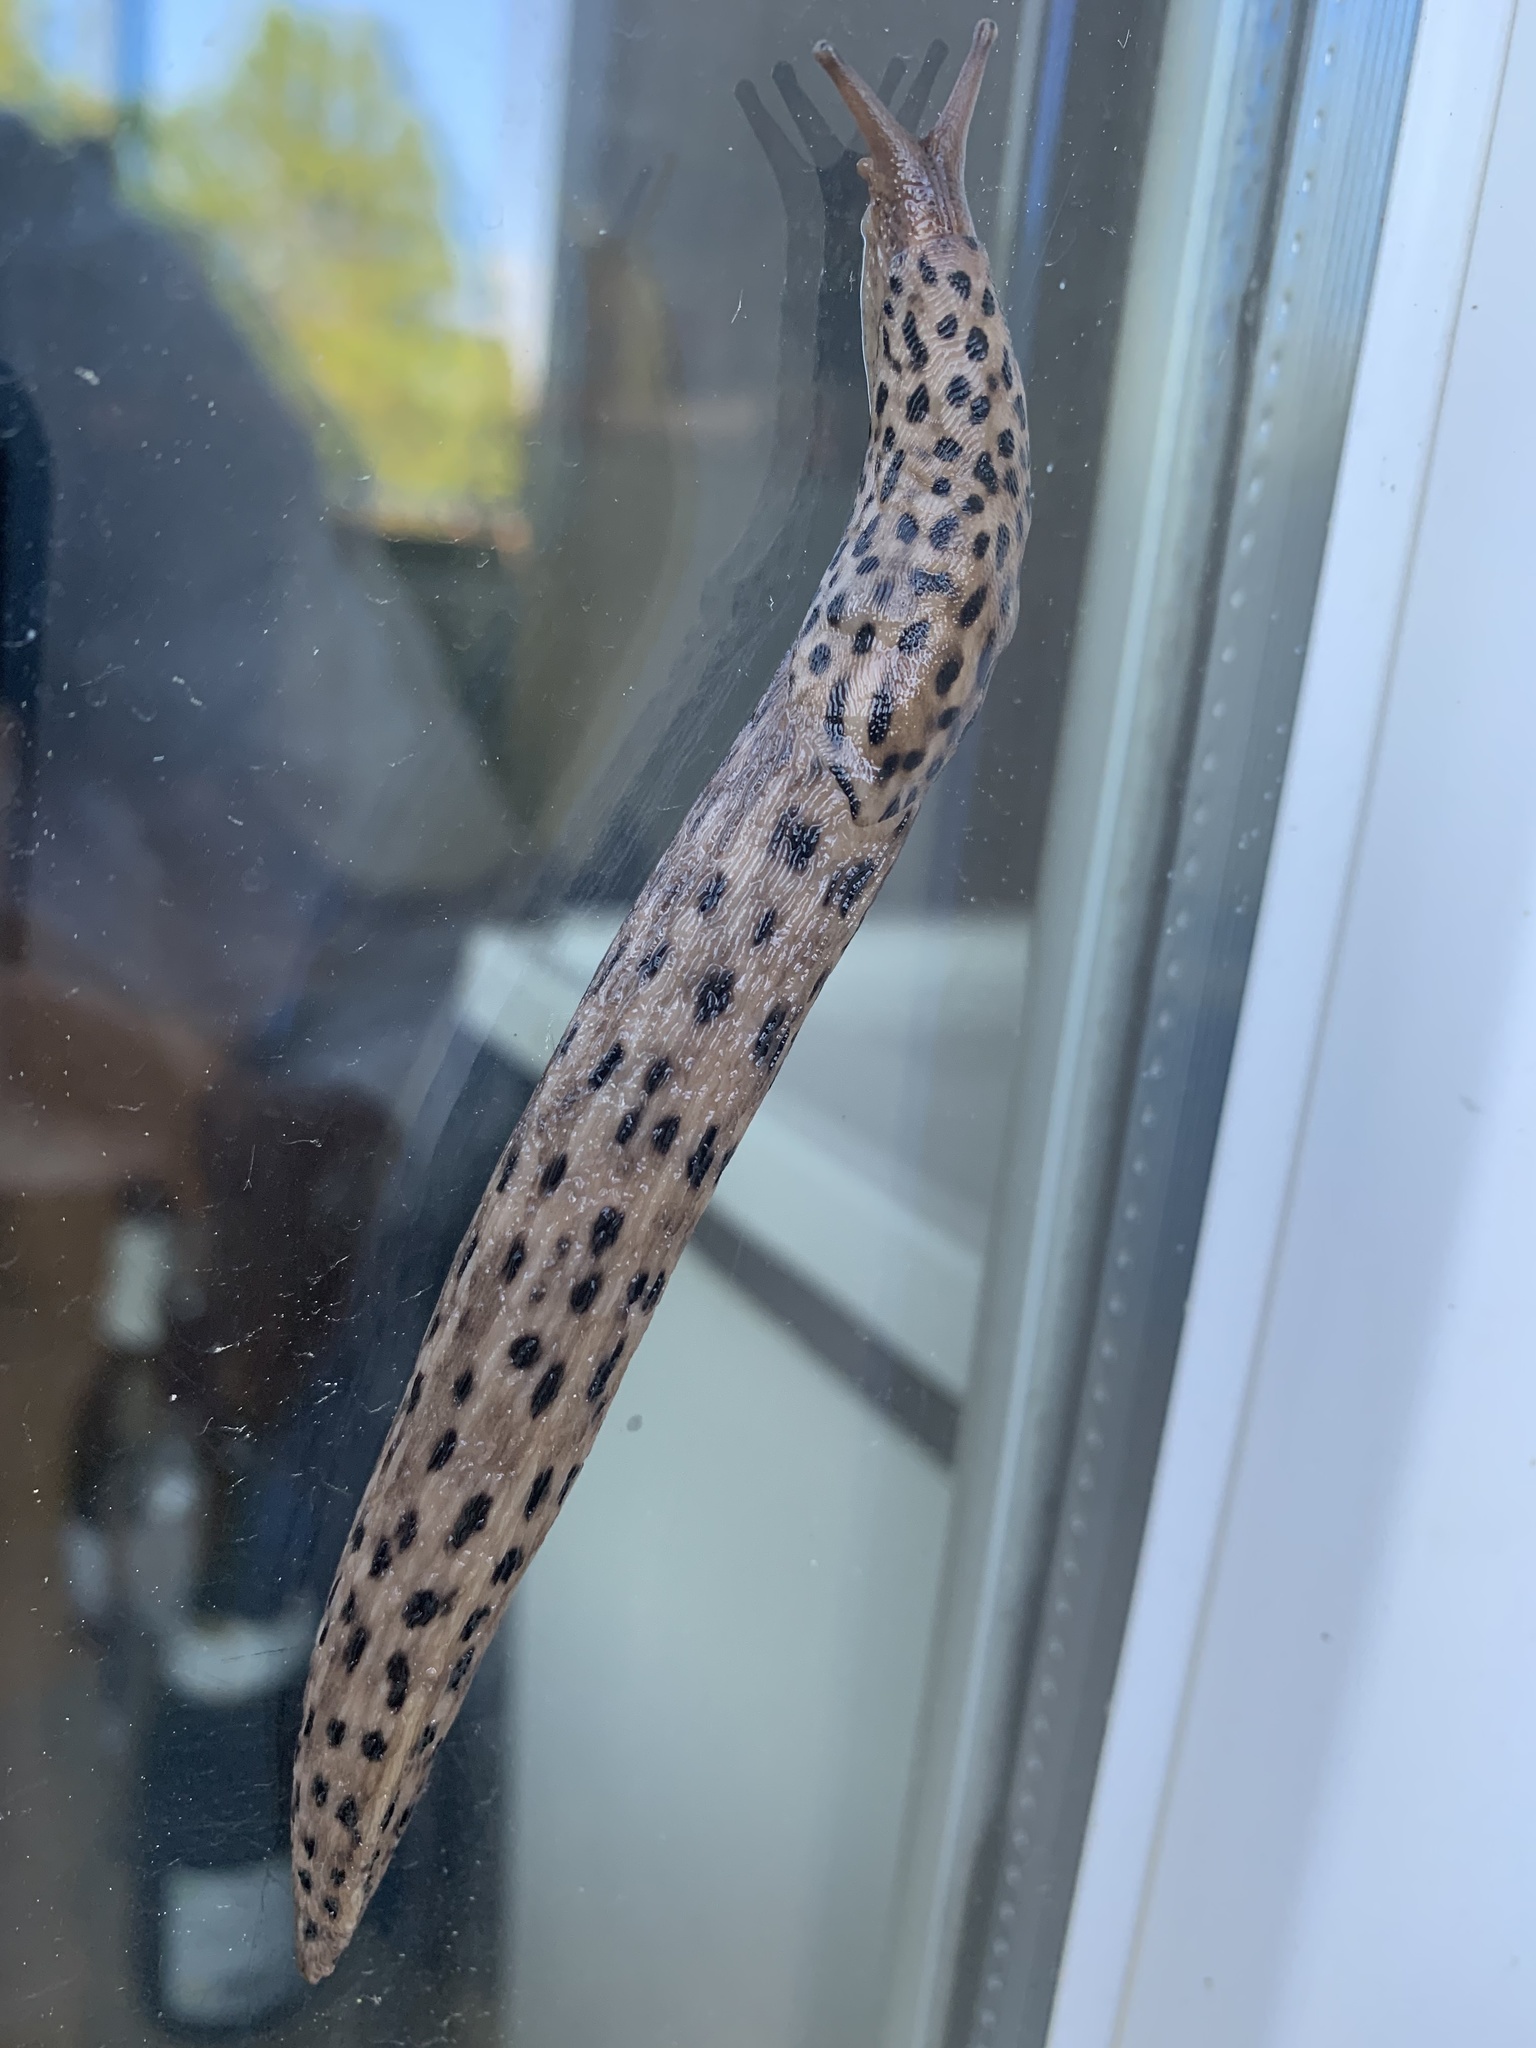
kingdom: Animalia
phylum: Mollusca
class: Gastropoda
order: Stylommatophora
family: Limacidae
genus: Limax
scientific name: Limax maximus
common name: Great grey slug
